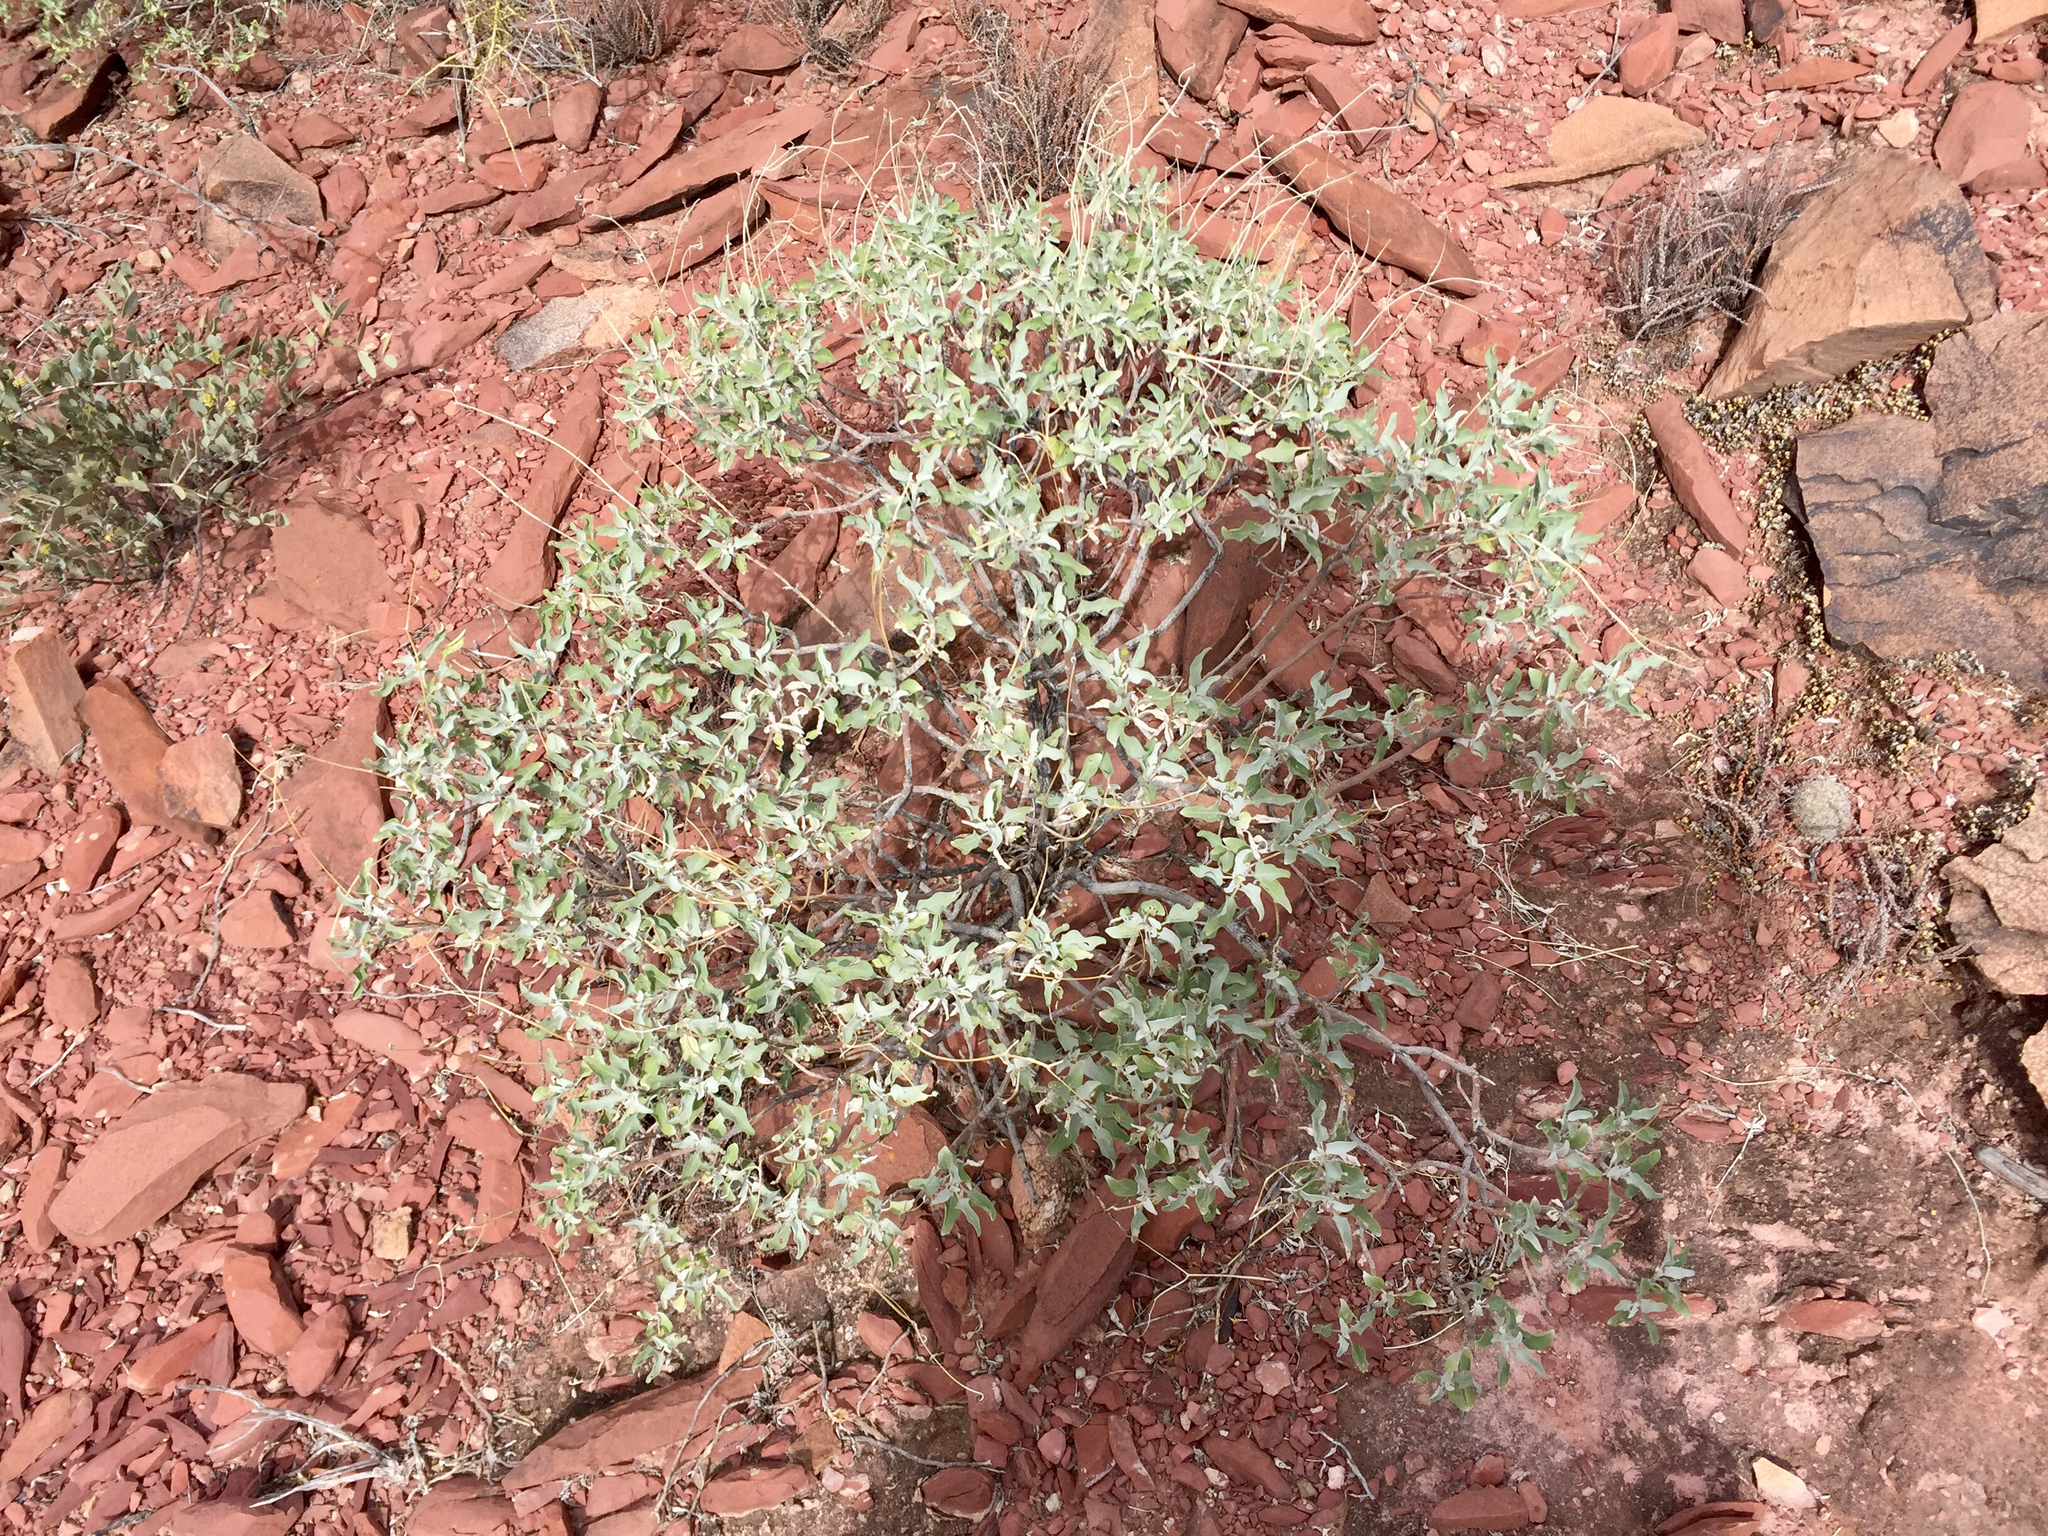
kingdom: Plantae
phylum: Tracheophyta
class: Magnoliopsida
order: Asterales
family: Asteraceae
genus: Encelia
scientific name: Encelia farinosa
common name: Brittlebush
